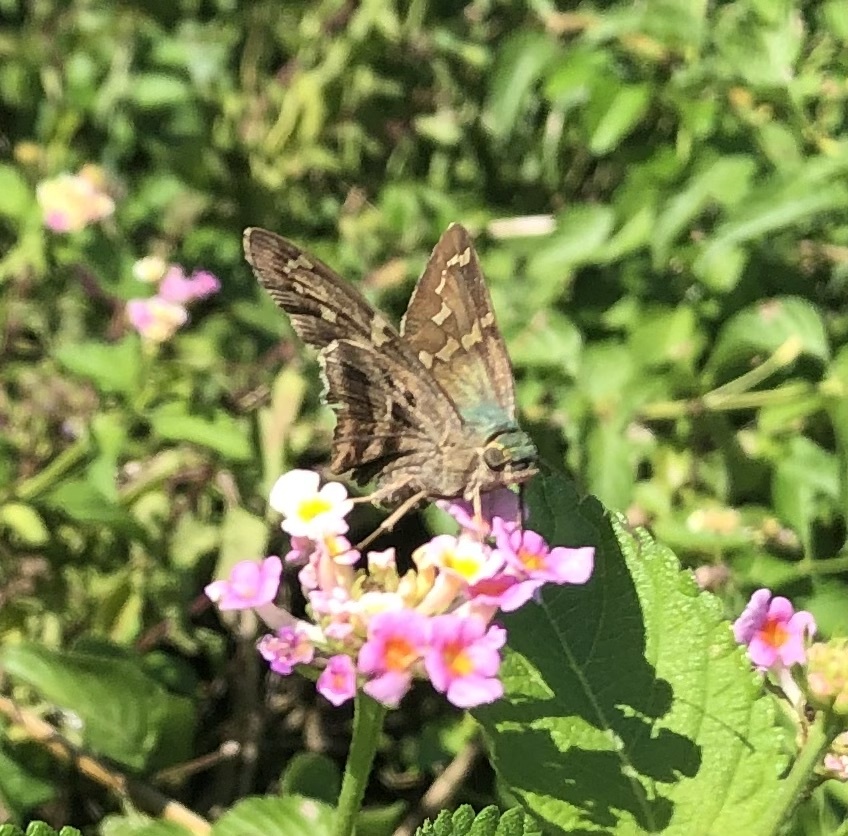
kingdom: Animalia
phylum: Arthropoda
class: Insecta
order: Lepidoptera
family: Hesperiidae
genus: Urbanus
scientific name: Urbanus proteus
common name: Long-tailed skipper
